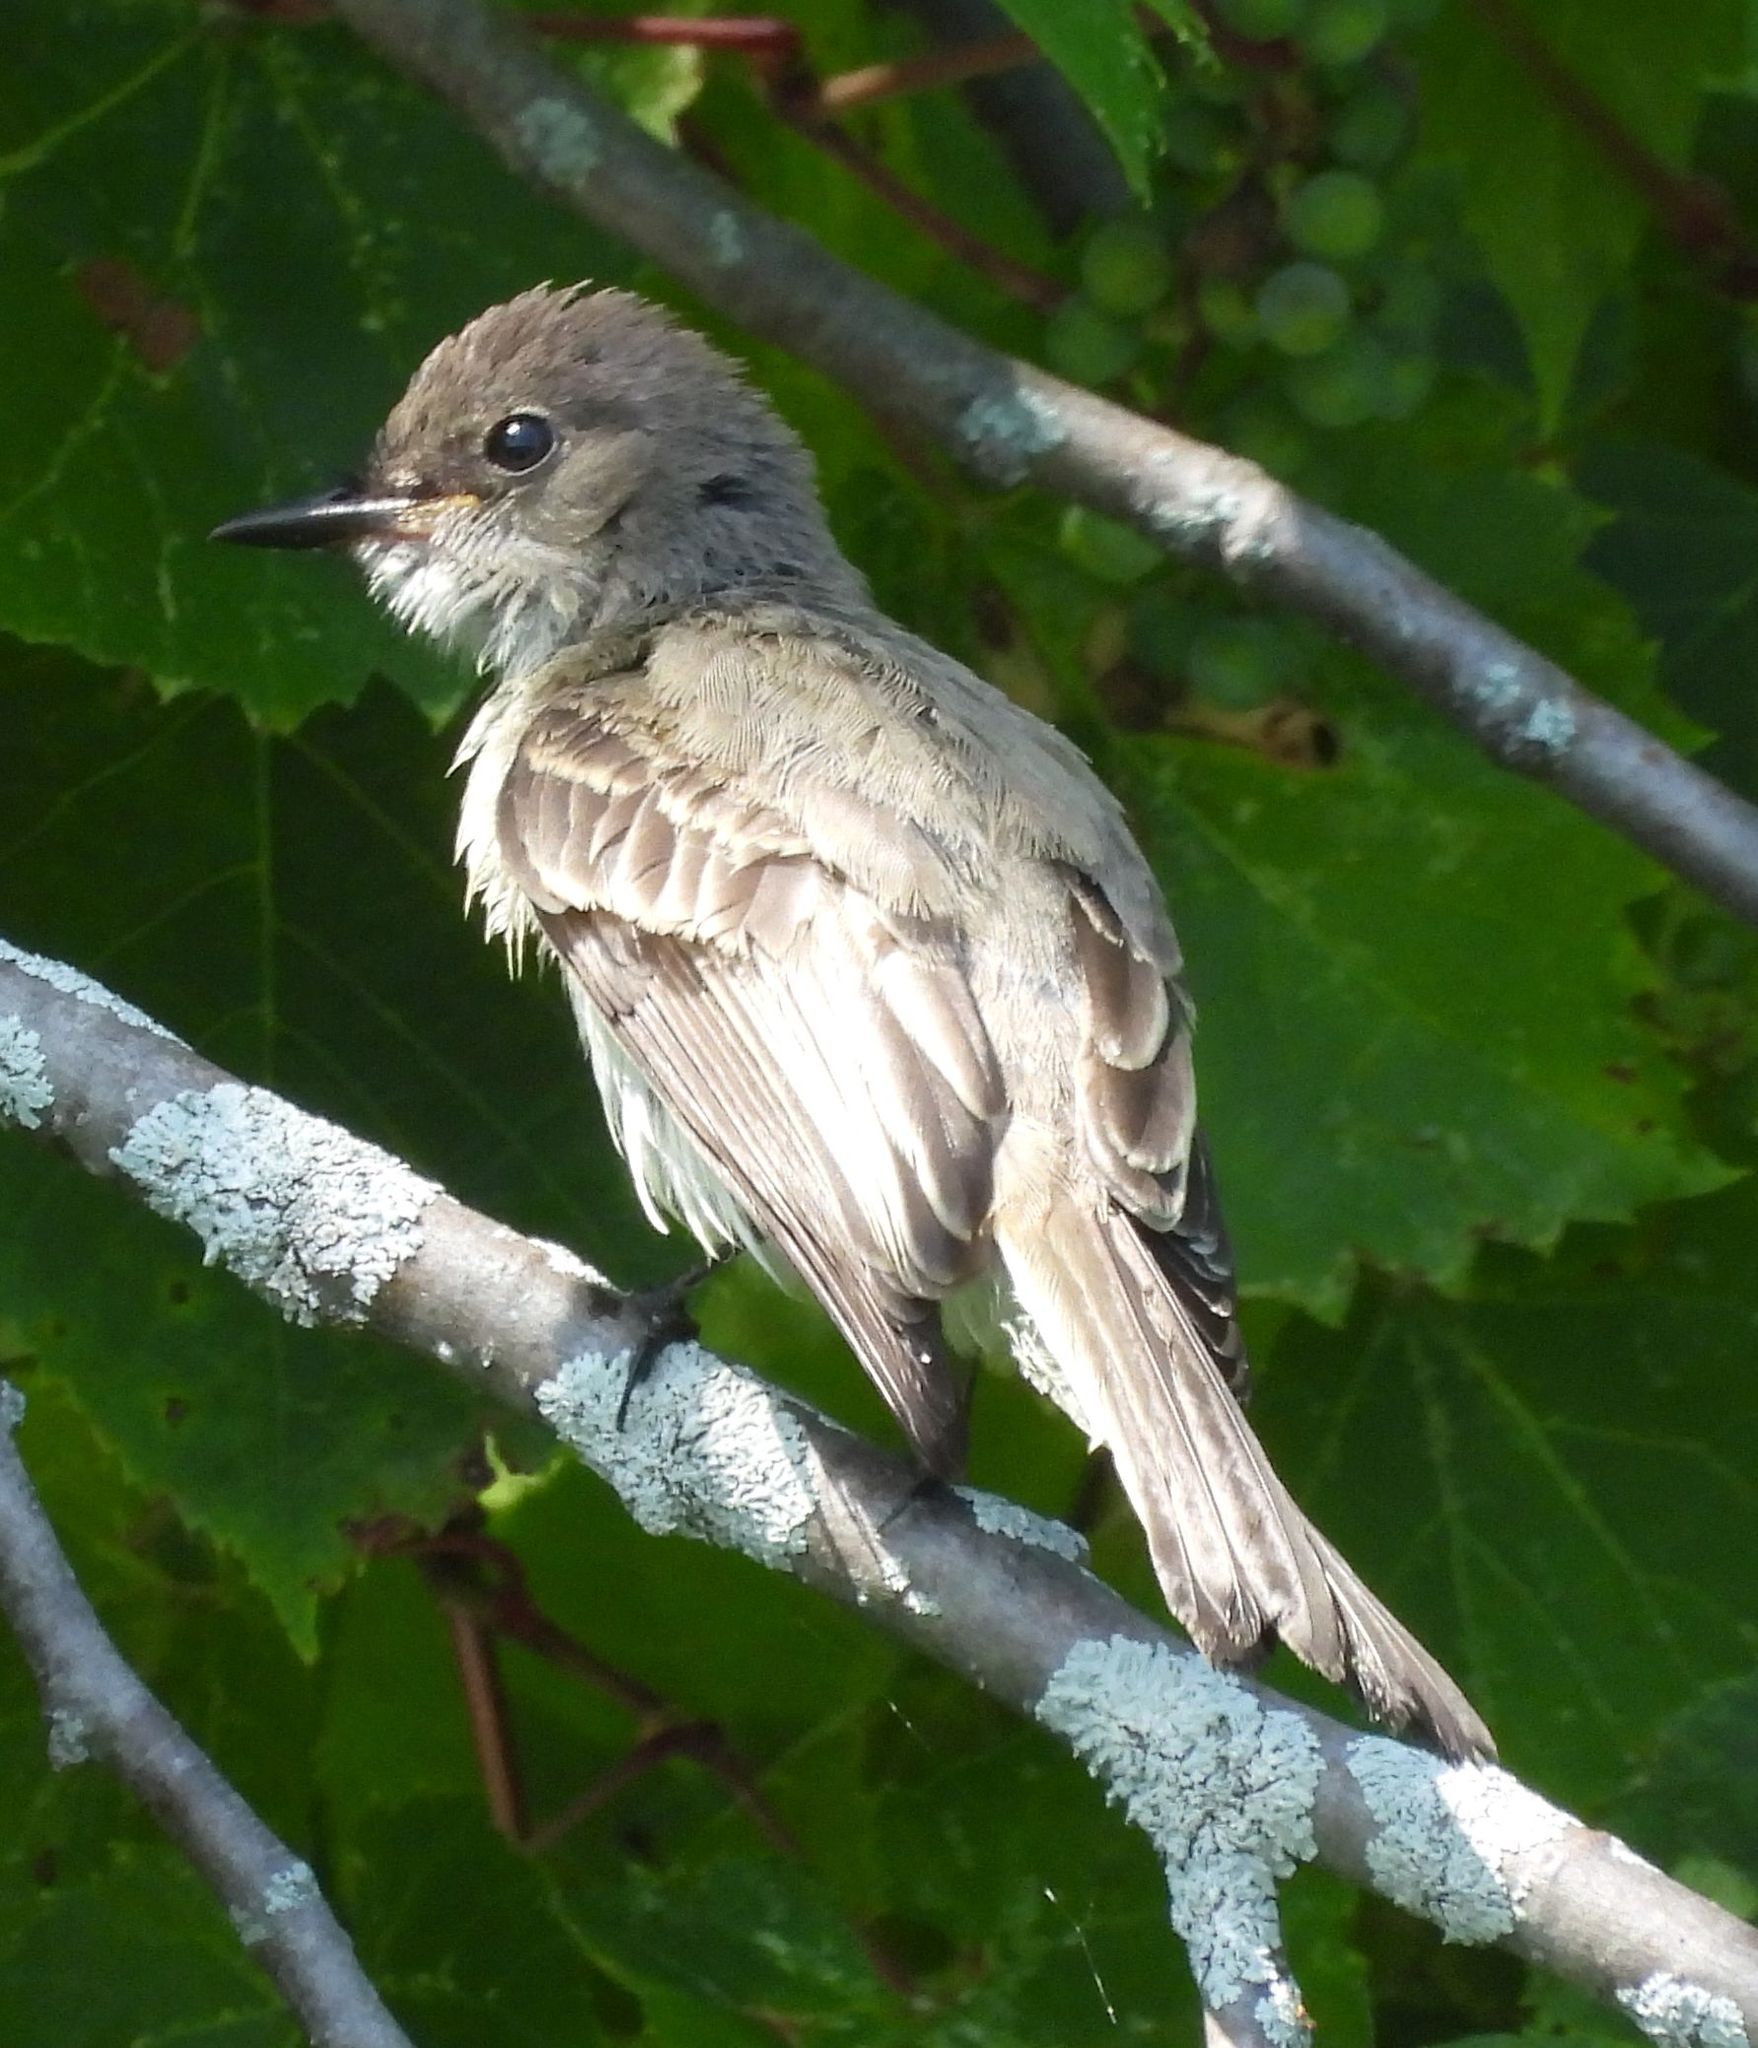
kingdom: Animalia
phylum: Chordata
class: Aves
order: Passeriformes
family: Tyrannidae
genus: Sayornis
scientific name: Sayornis phoebe
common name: Eastern phoebe
